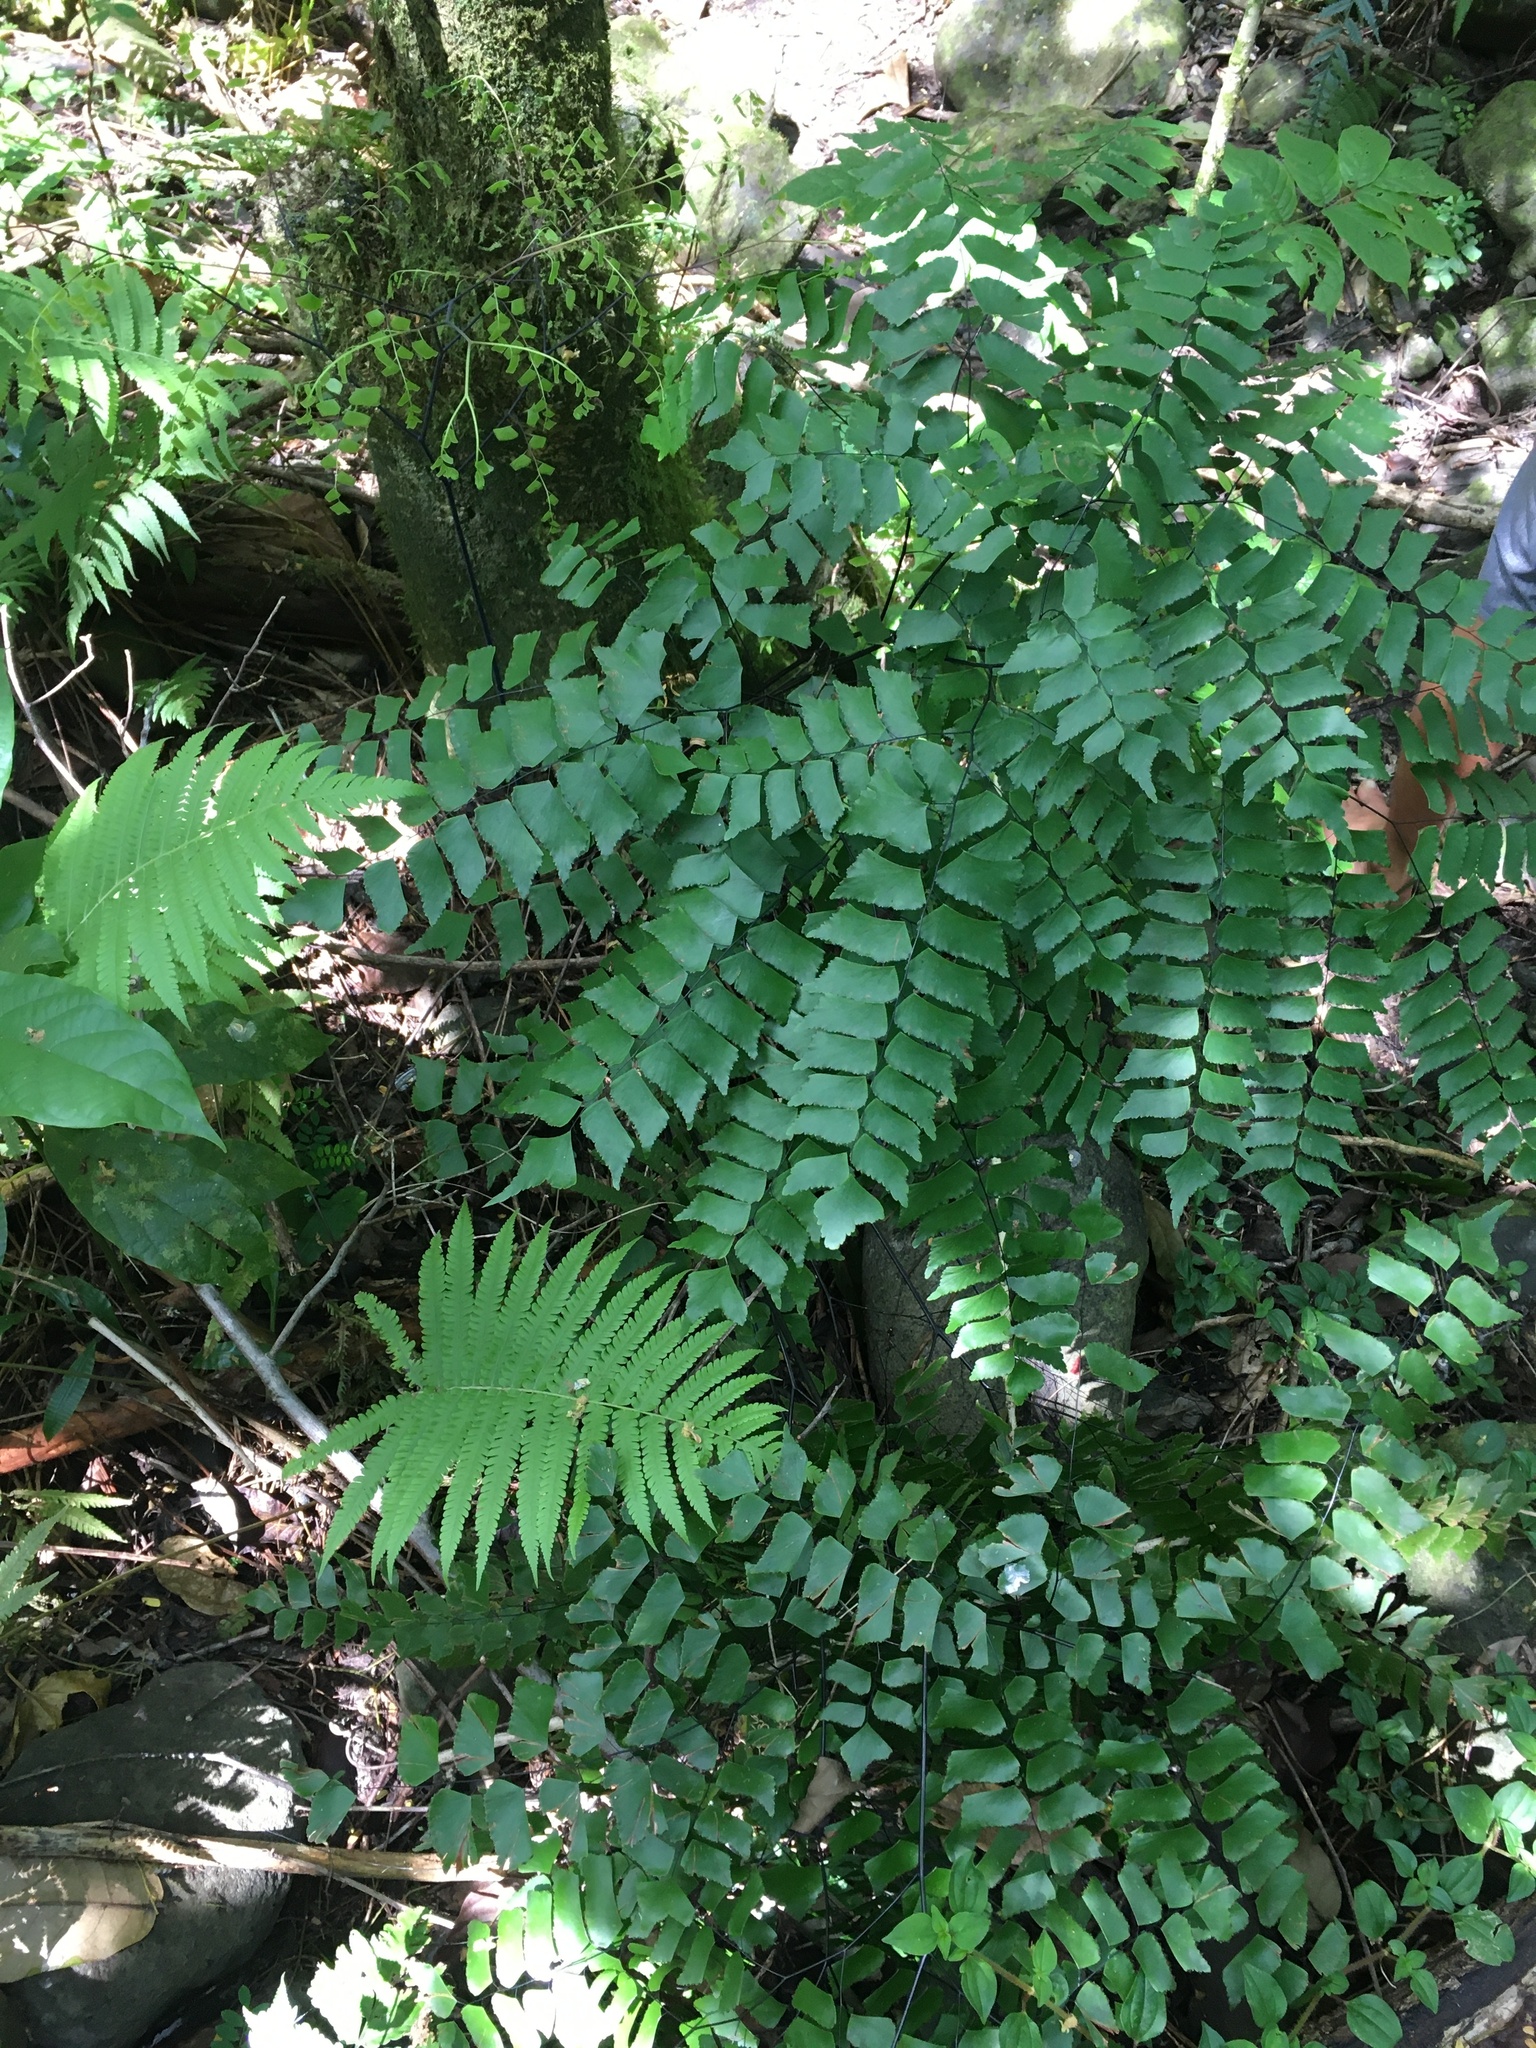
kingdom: Plantae
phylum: Tracheophyta
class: Polypodiopsida
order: Polypodiales
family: Pteridaceae
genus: Adiantum
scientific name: Adiantum trapeziforme
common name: Diamond maidenhair
